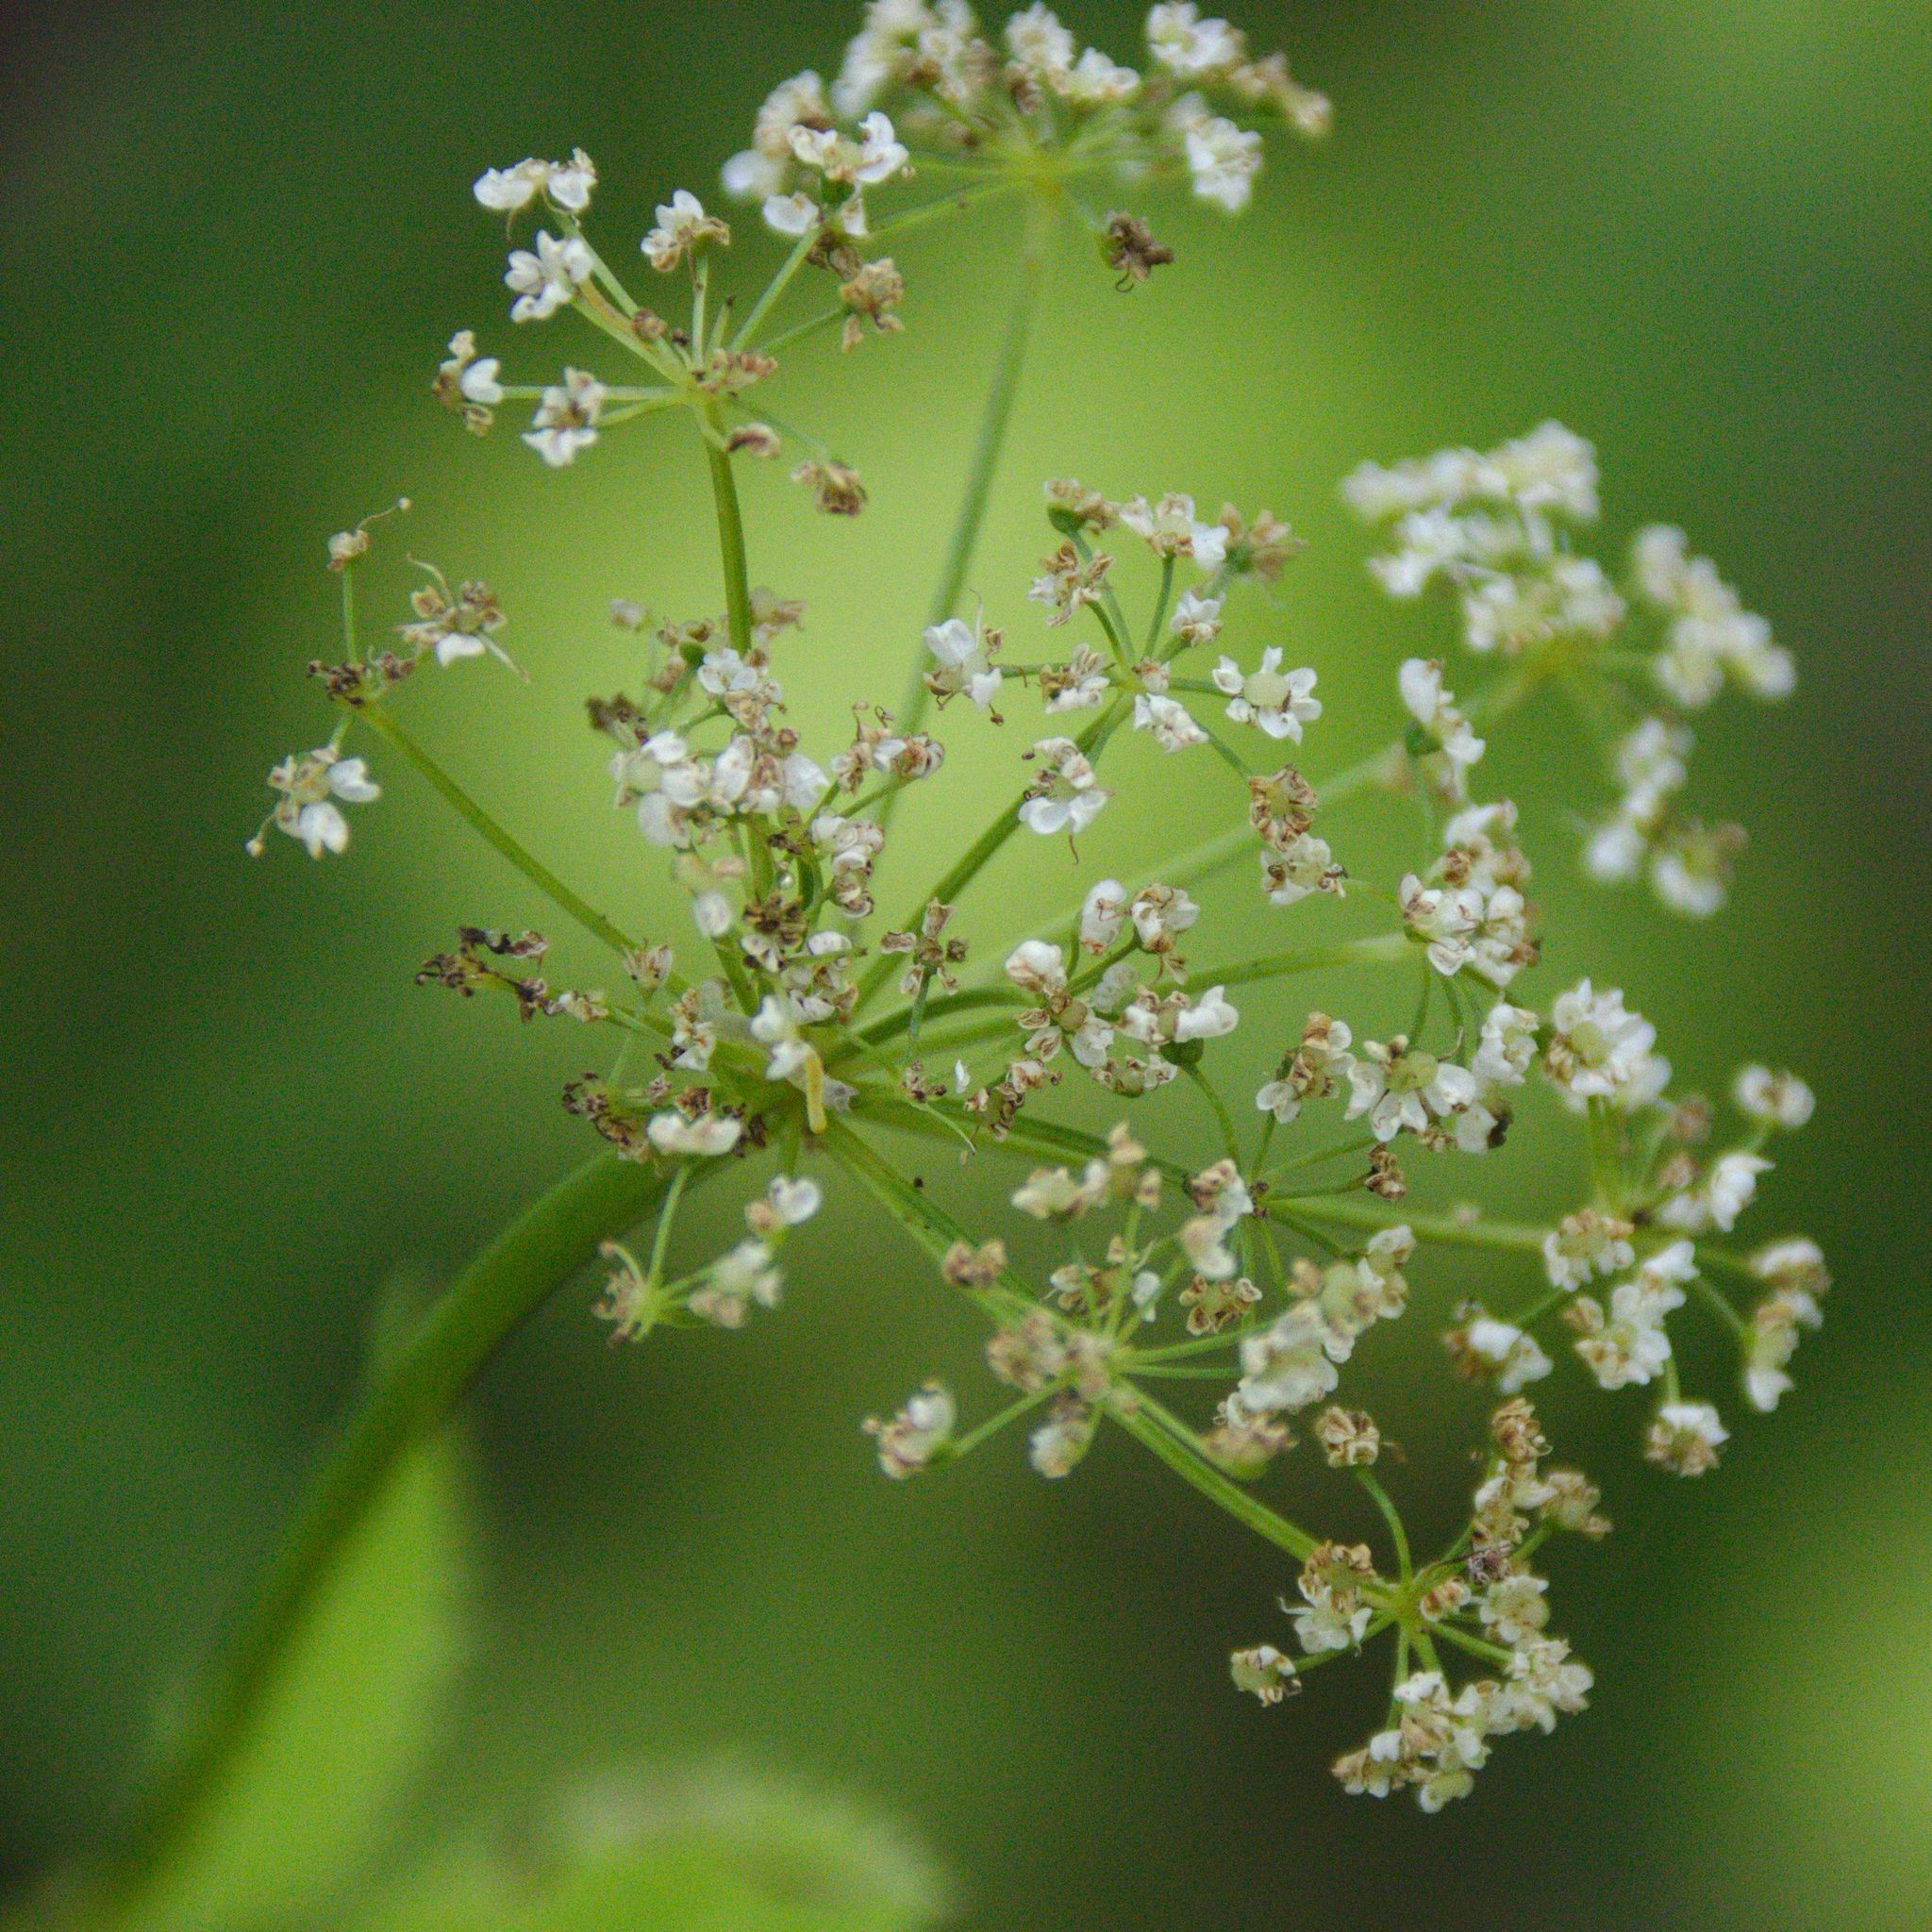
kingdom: Plantae
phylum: Tracheophyta
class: Magnoliopsida
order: Apiales
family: Apiaceae
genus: Aegopodium
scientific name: Aegopodium podagraria
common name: Ground-elder
